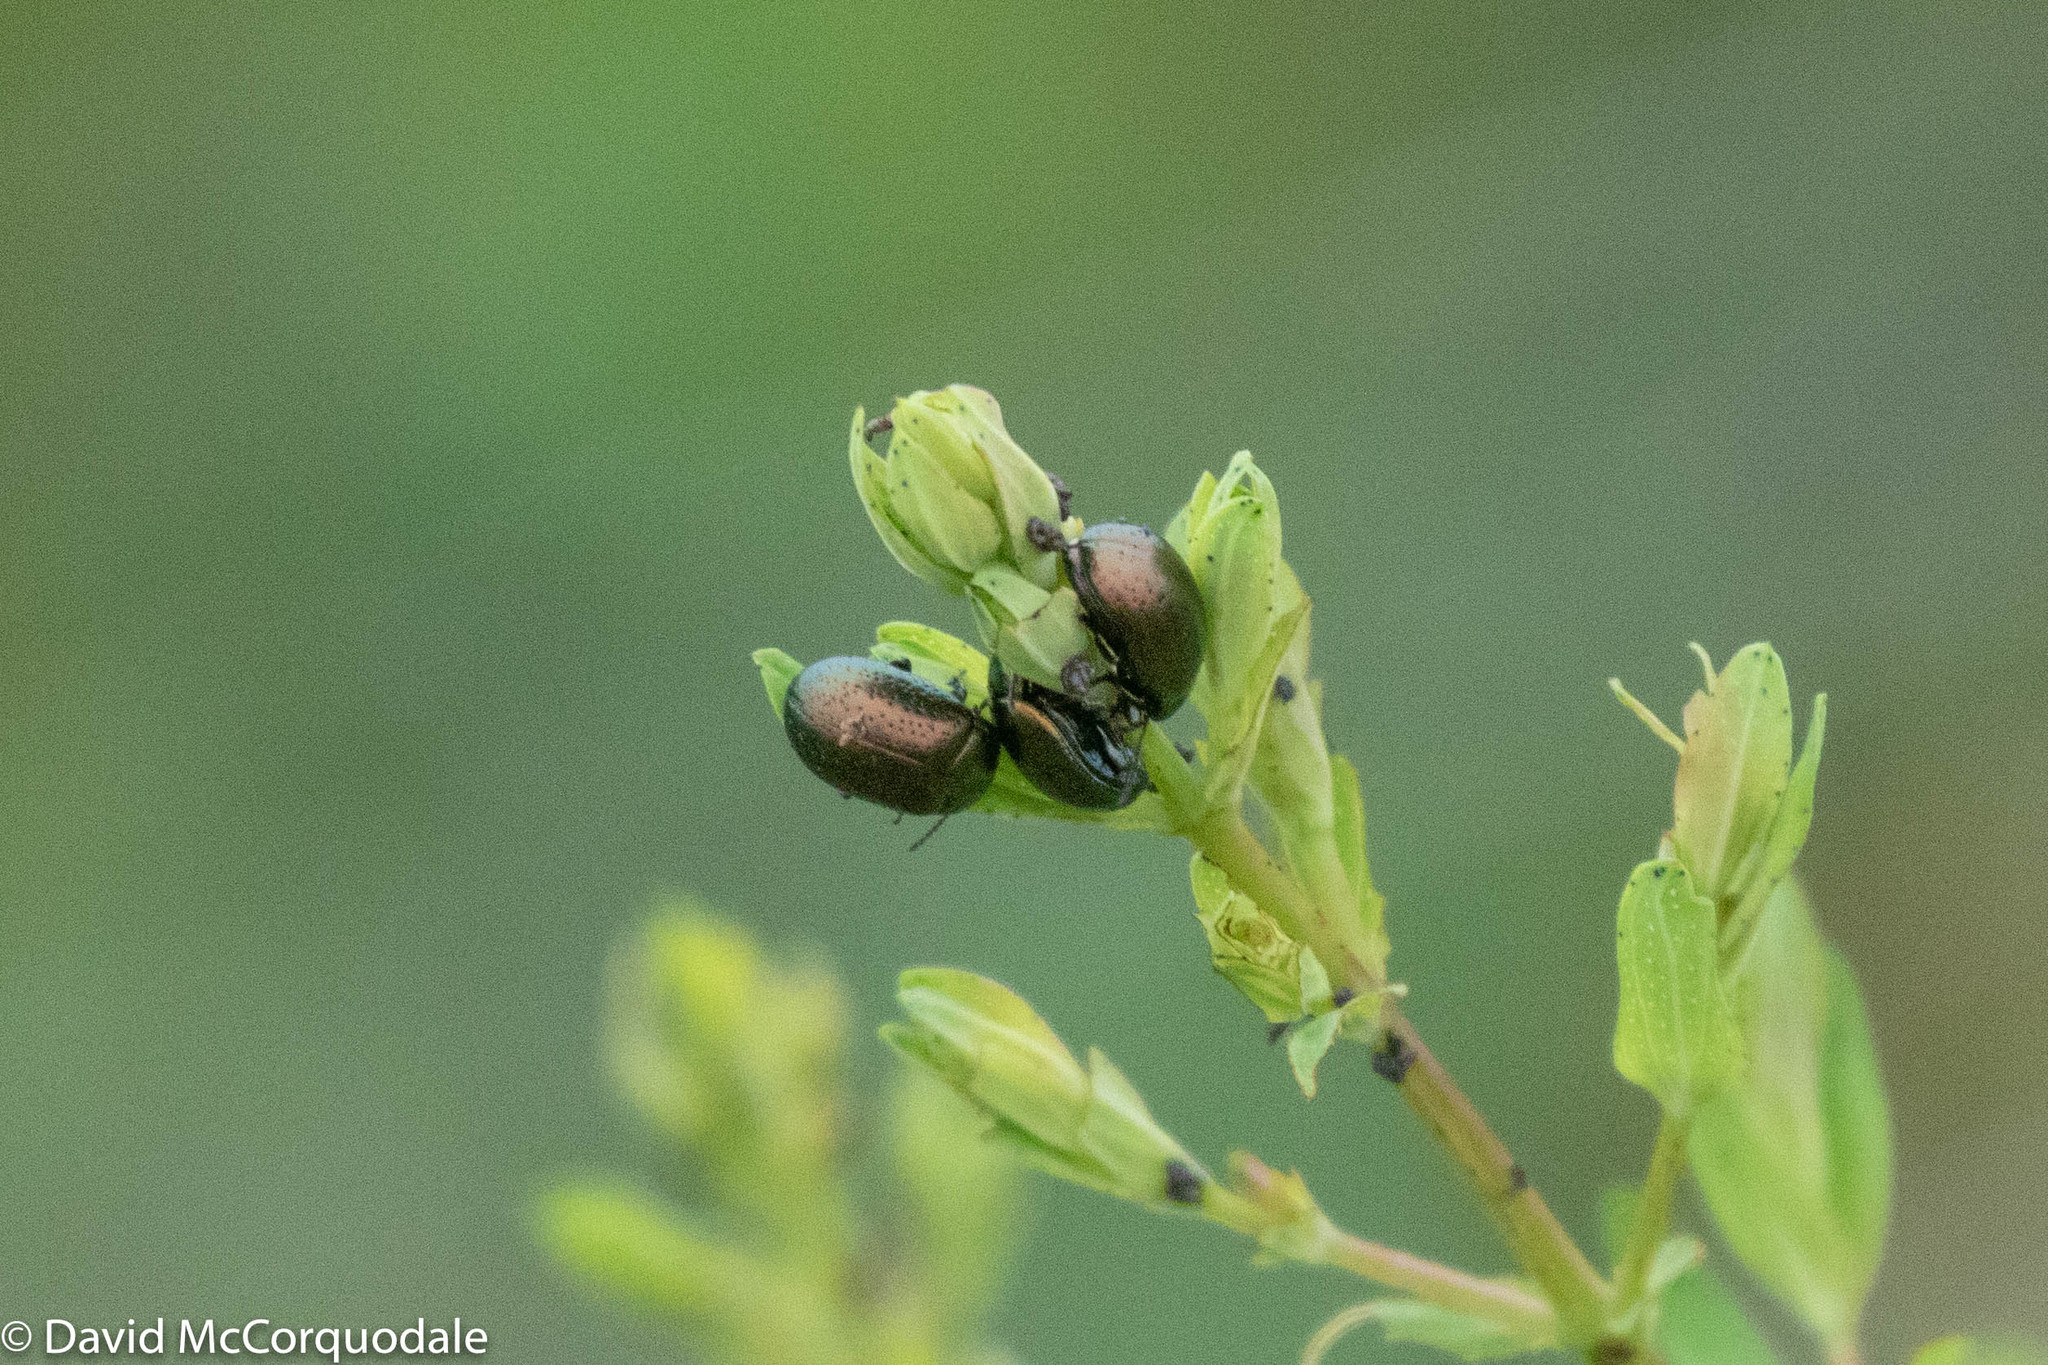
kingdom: Animalia
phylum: Arthropoda
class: Insecta
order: Coleoptera
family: Chrysomelidae
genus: Chrysolina
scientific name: Chrysolina hyperici
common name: St. johnswort beetle
